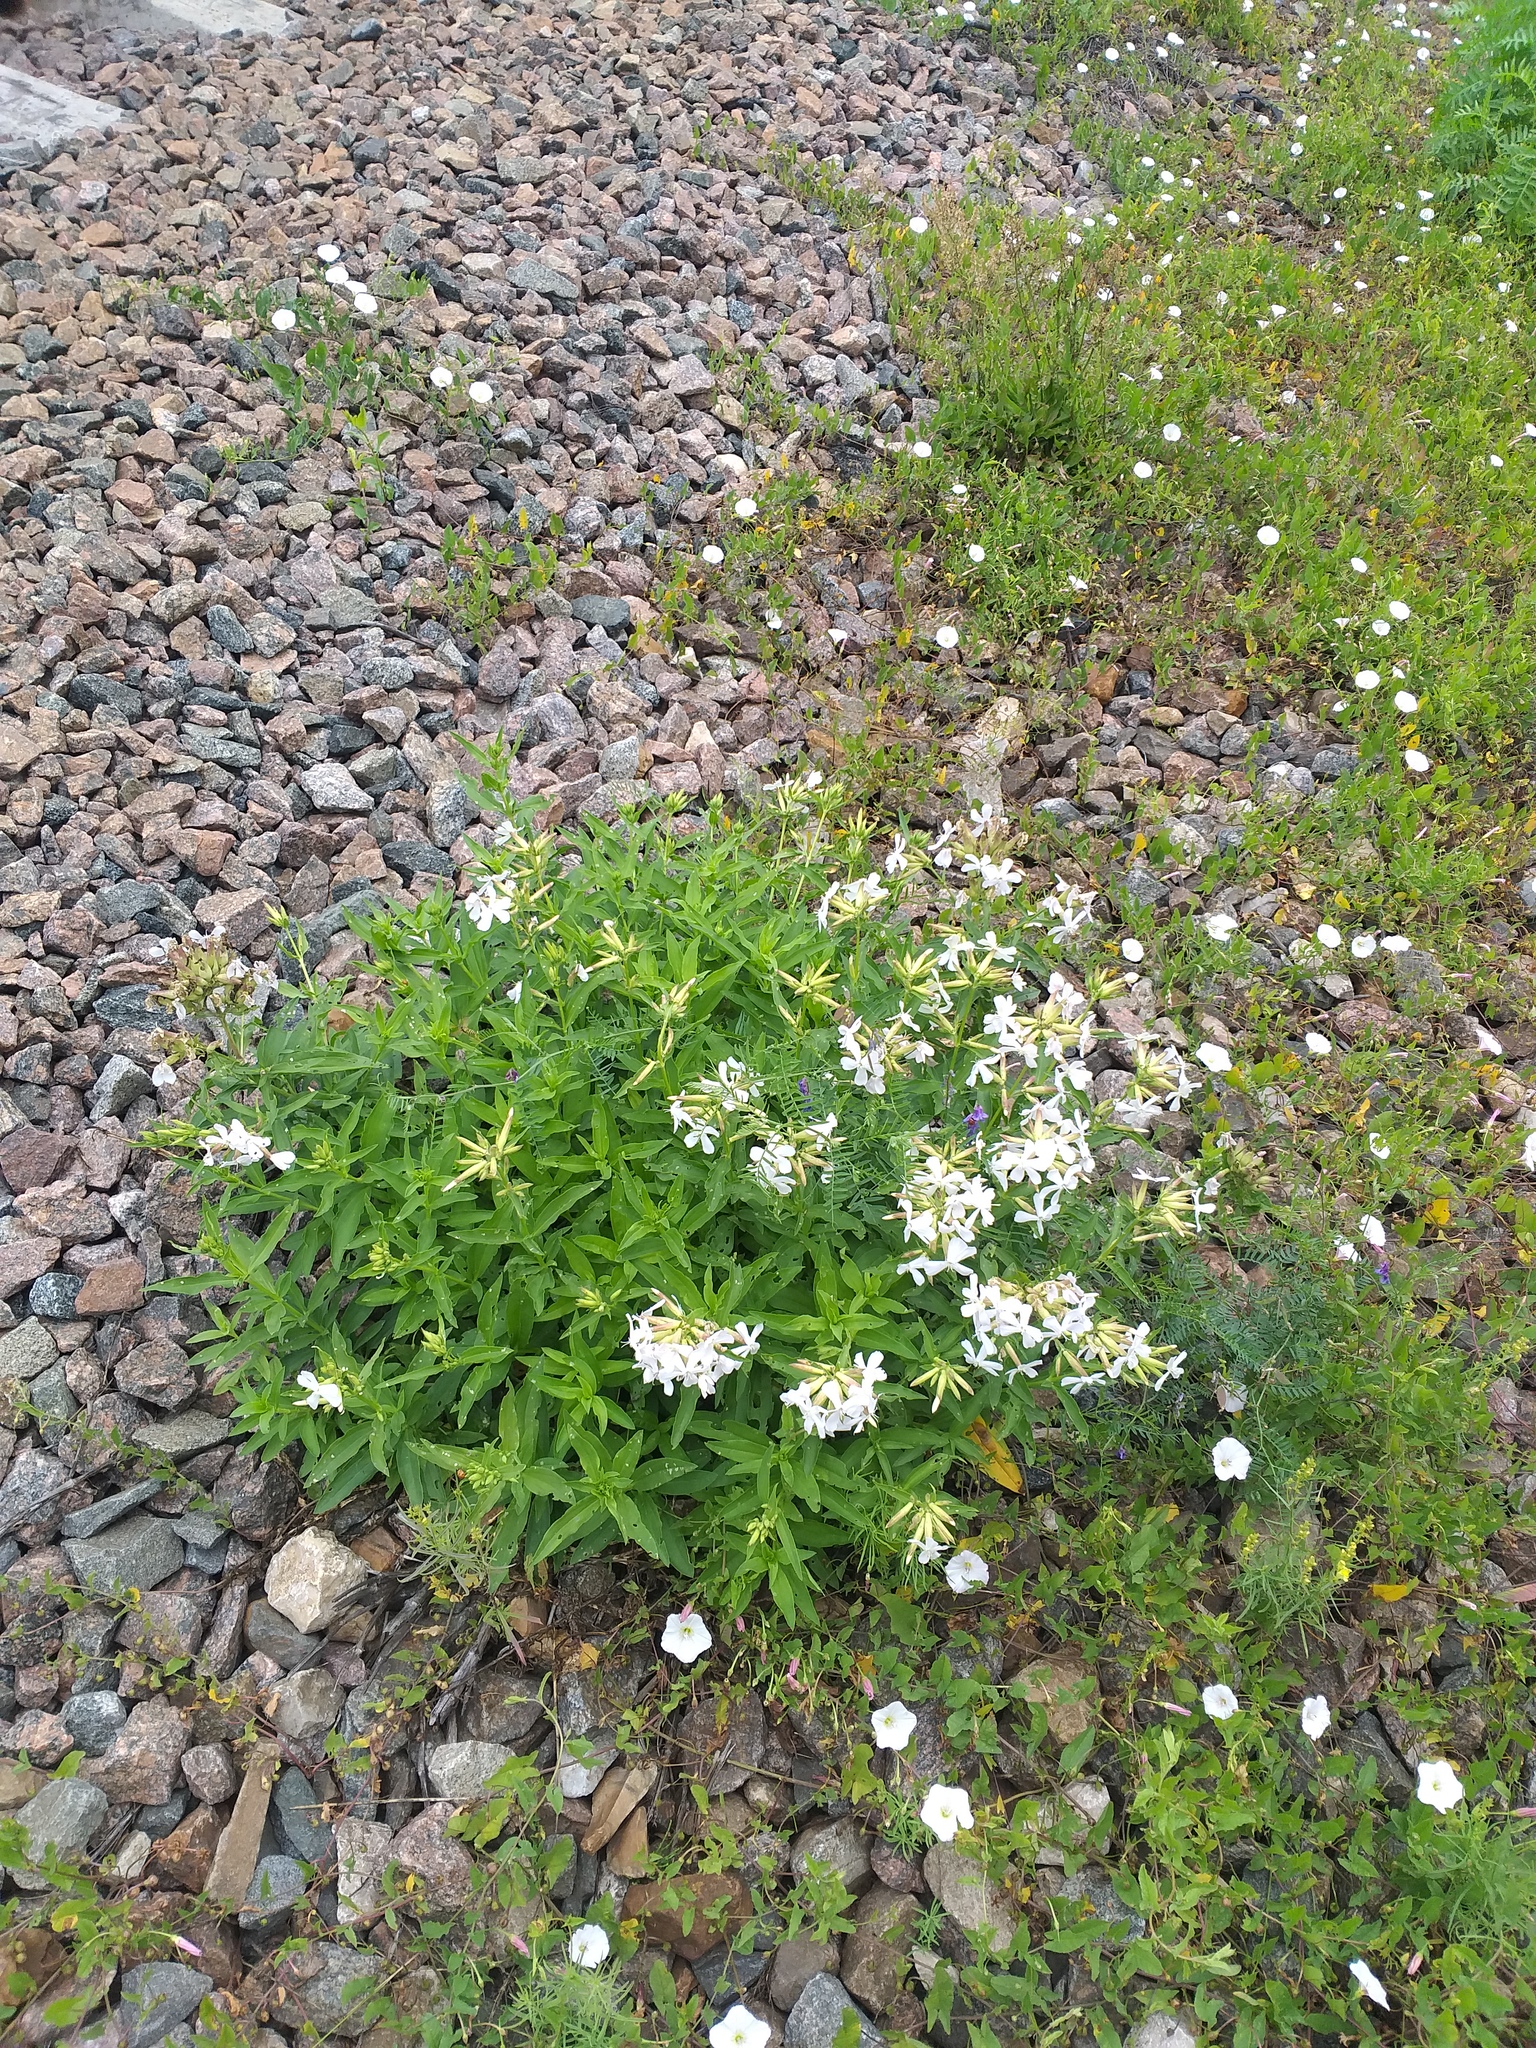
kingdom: Plantae
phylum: Tracheophyta
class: Magnoliopsida
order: Caryophyllales
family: Caryophyllaceae
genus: Saponaria
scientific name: Saponaria officinalis
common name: Soapwort
